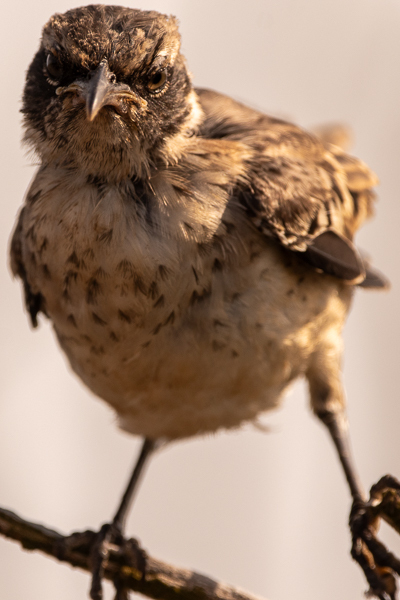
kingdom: Animalia
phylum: Chordata
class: Aves
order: Passeriformes
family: Mimidae
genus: Mimus
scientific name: Mimus parvulus
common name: Galapagos mockingbird
